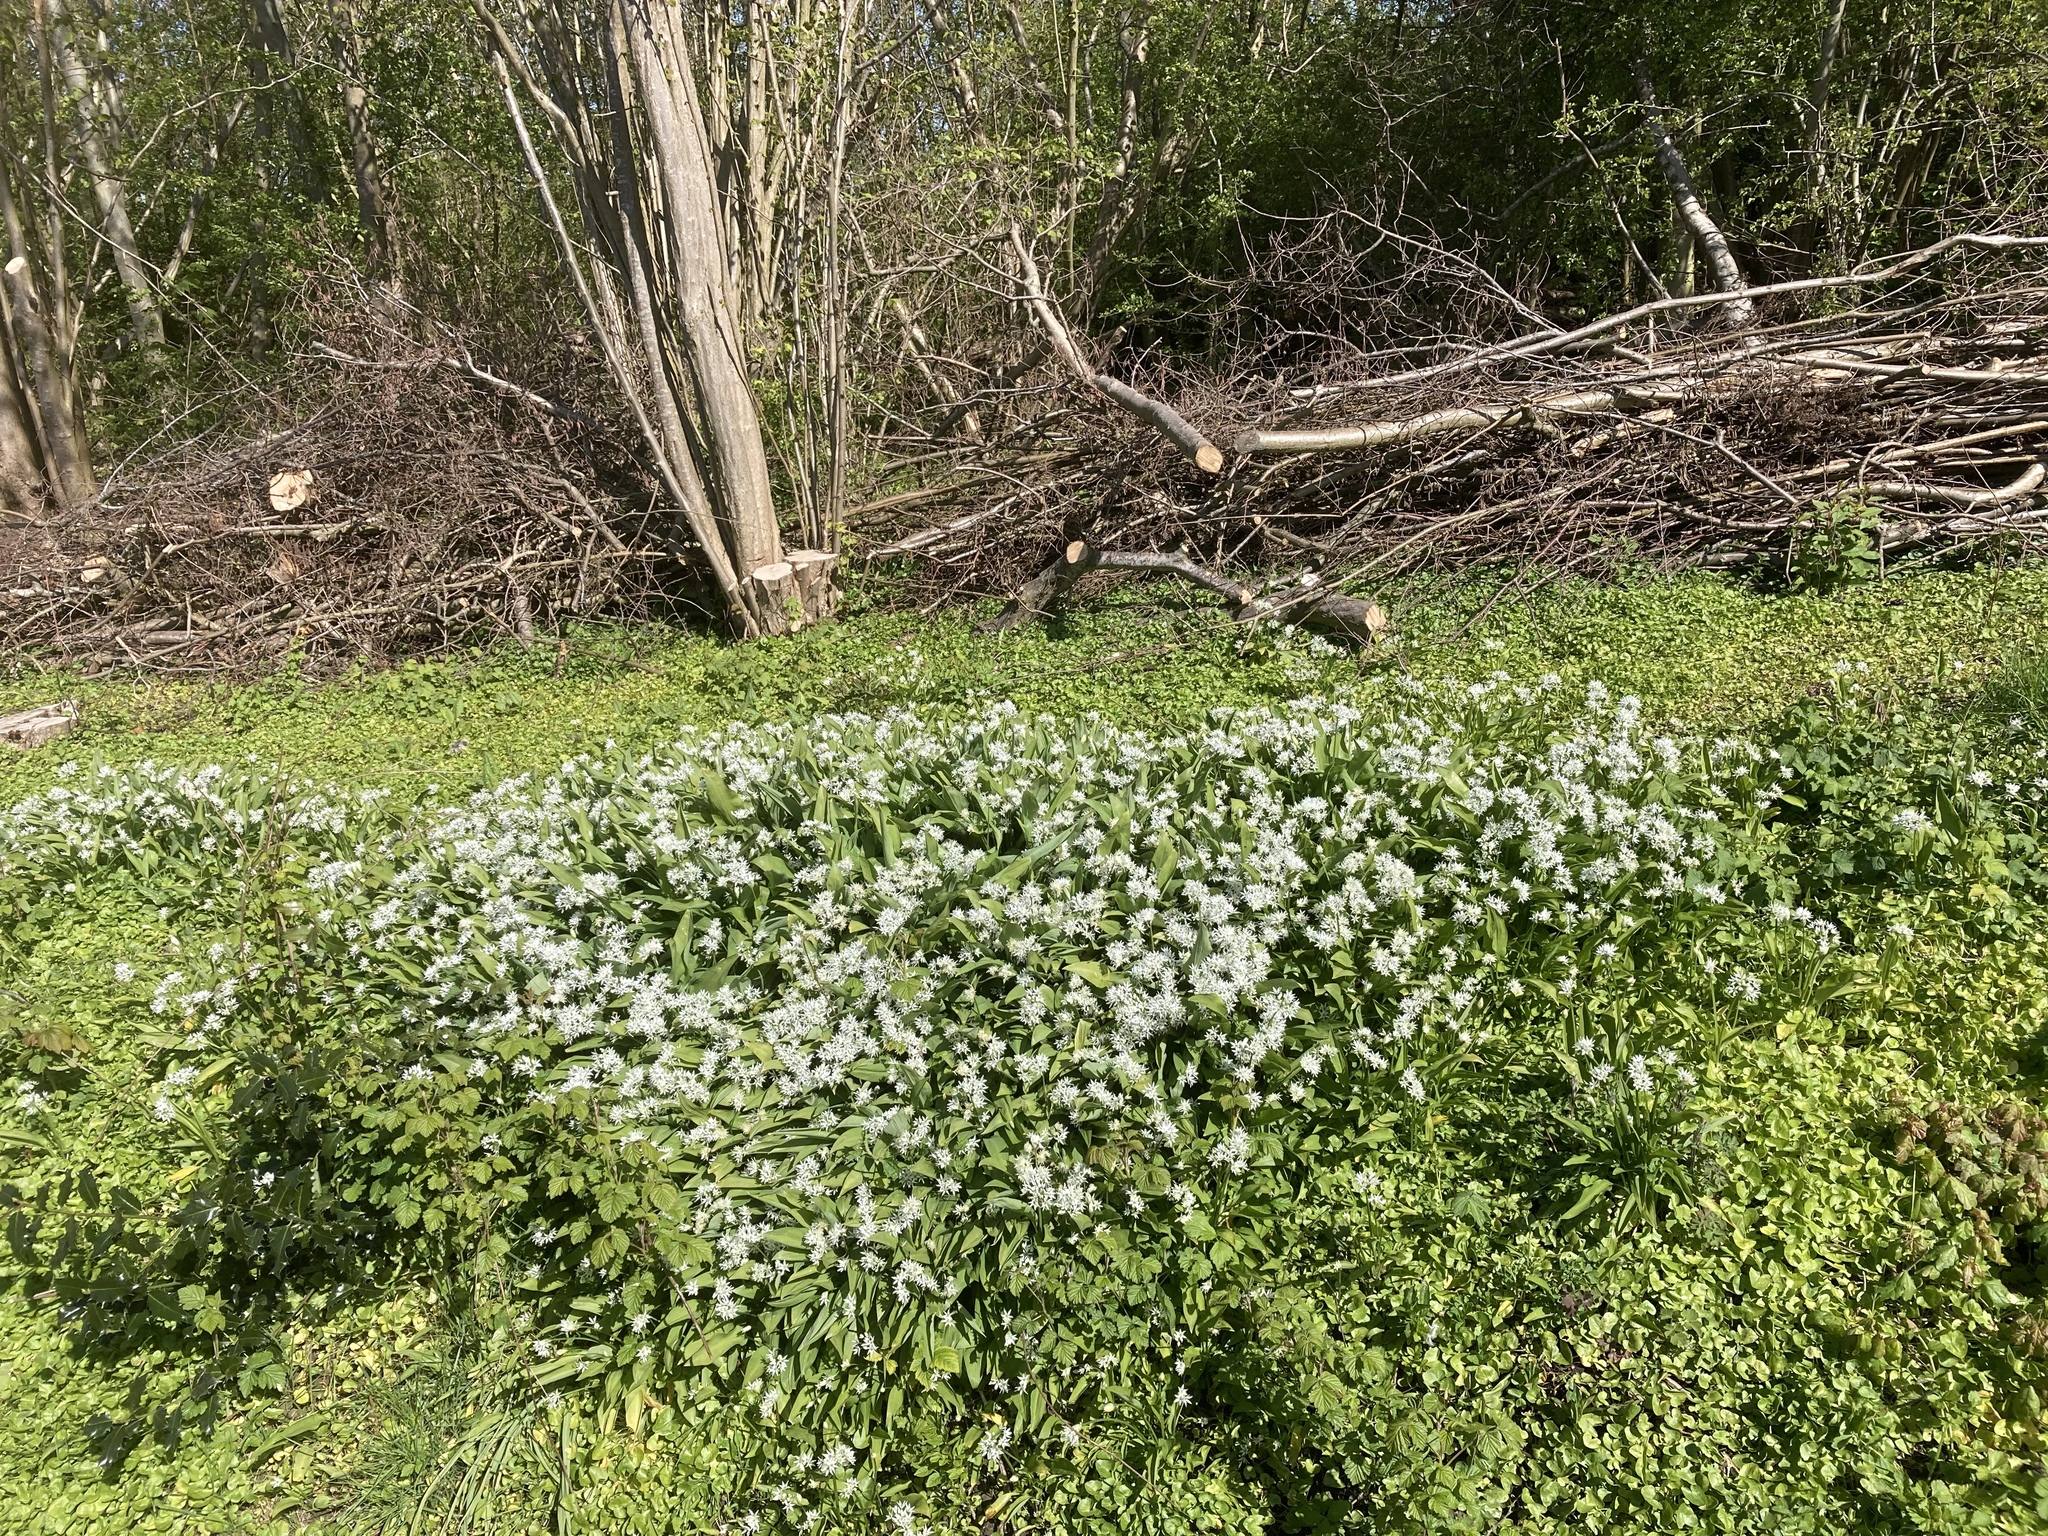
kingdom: Plantae
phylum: Tracheophyta
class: Liliopsida
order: Asparagales
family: Amaryllidaceae
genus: Allium
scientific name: Allium ursinum
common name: Ramsons
